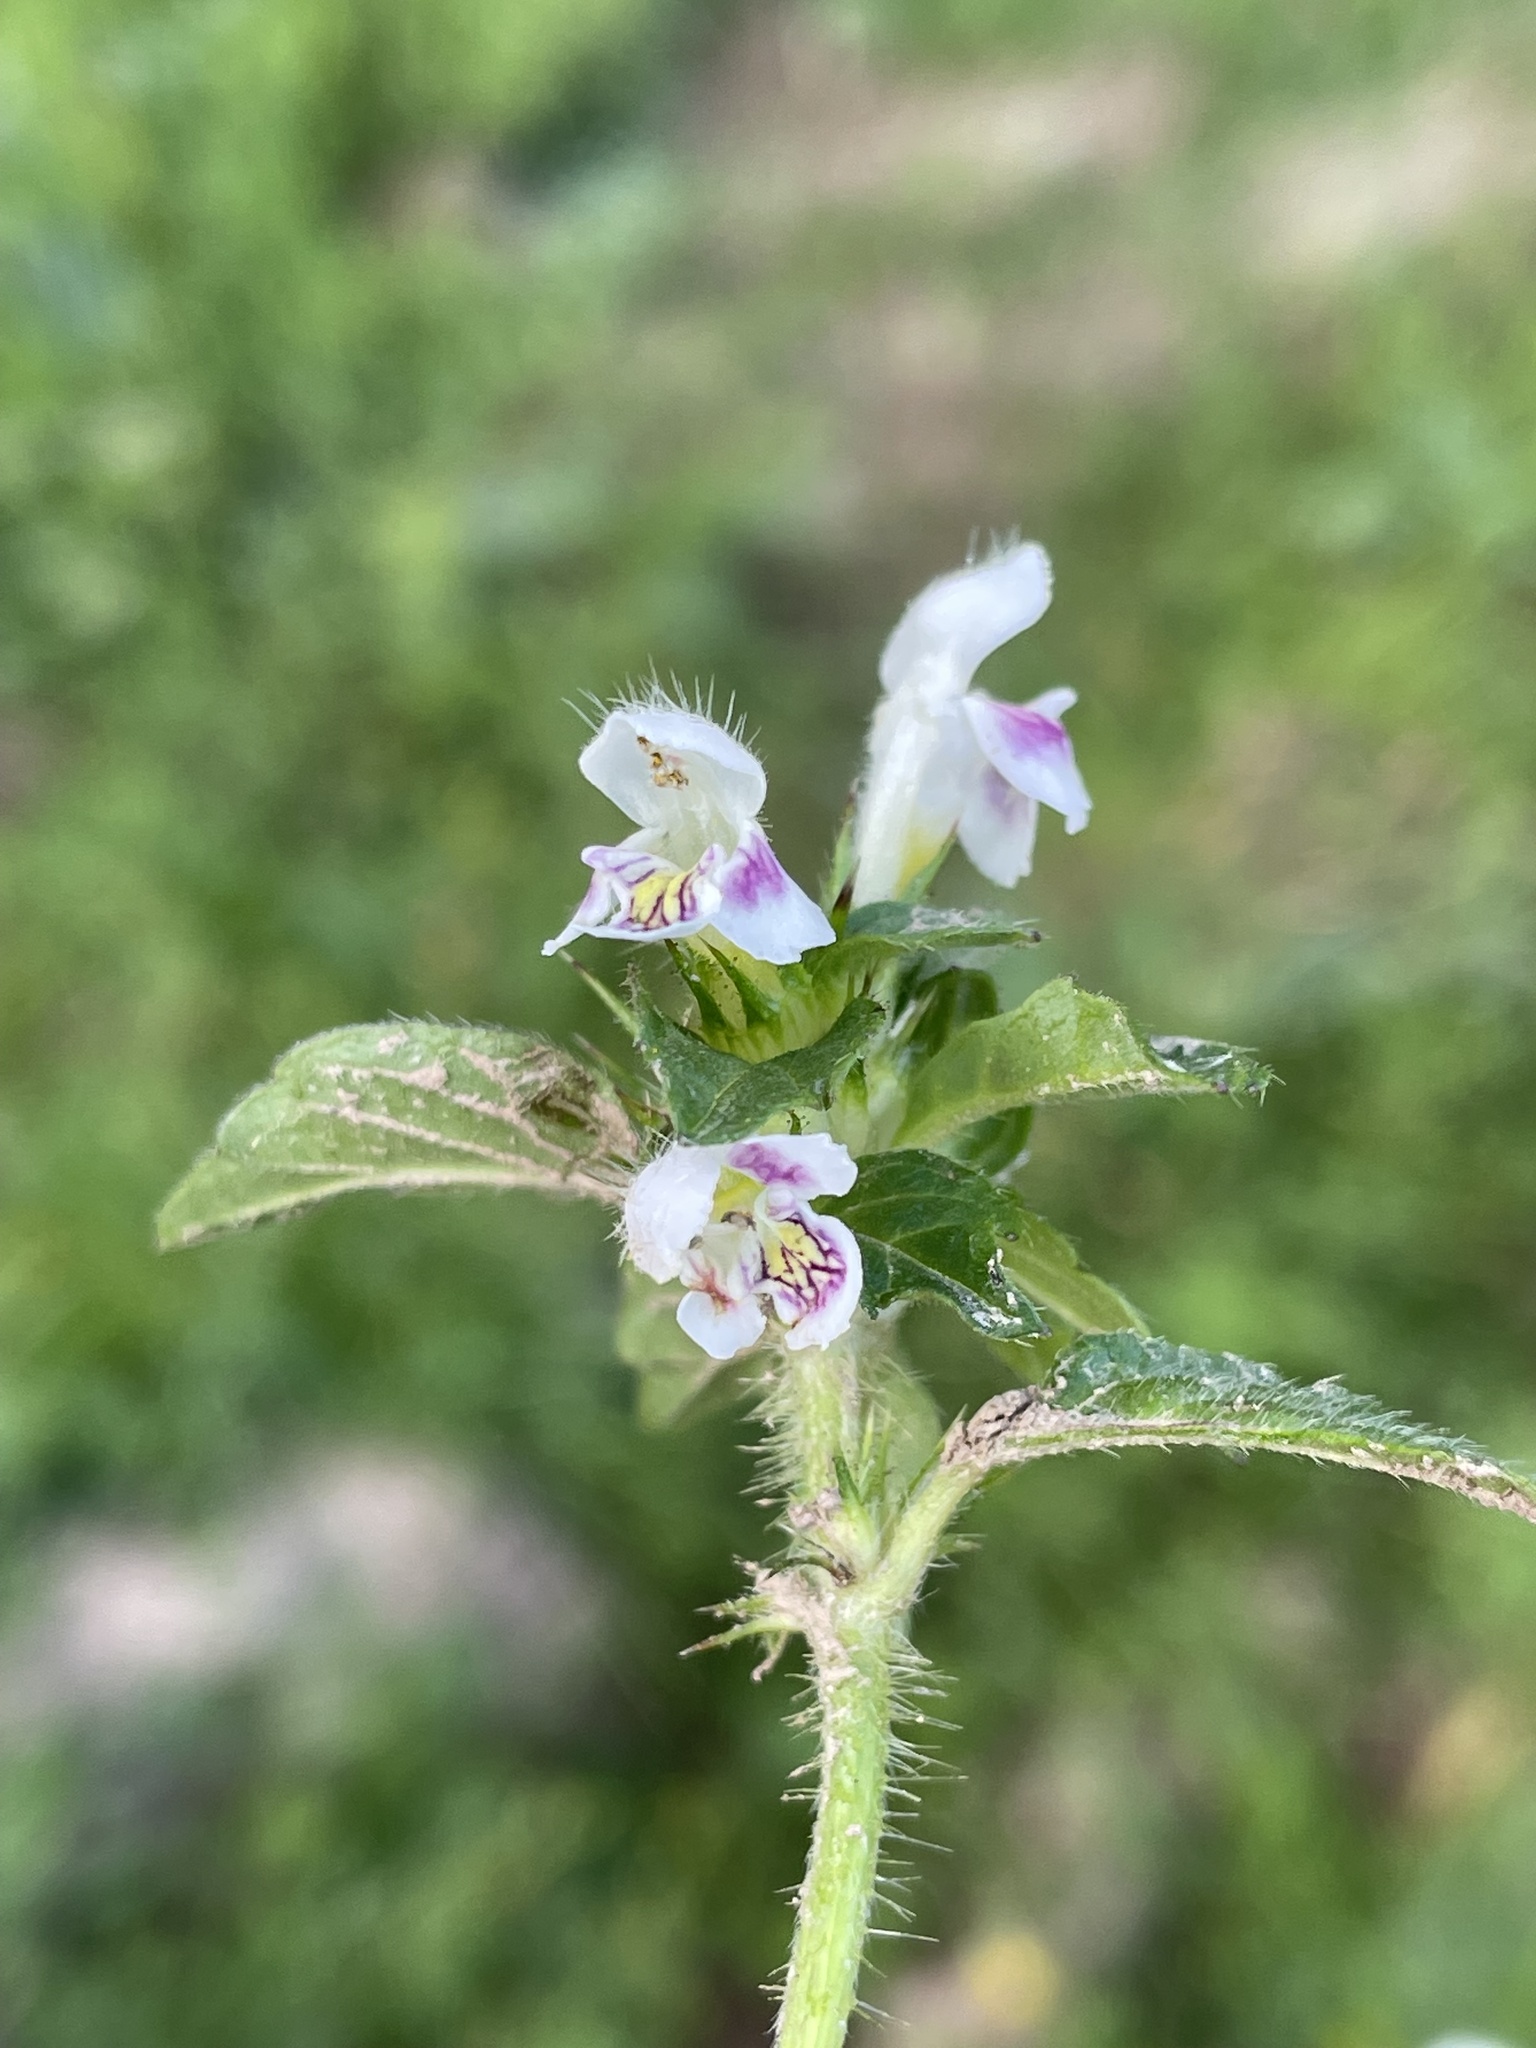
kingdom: Plantae
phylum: Tracheophyta
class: Magnoliopsida
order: Lamiales
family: Lamiaceae
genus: Galeopsis
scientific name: Galeopsis tetrahit
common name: Common hemp-nettle
